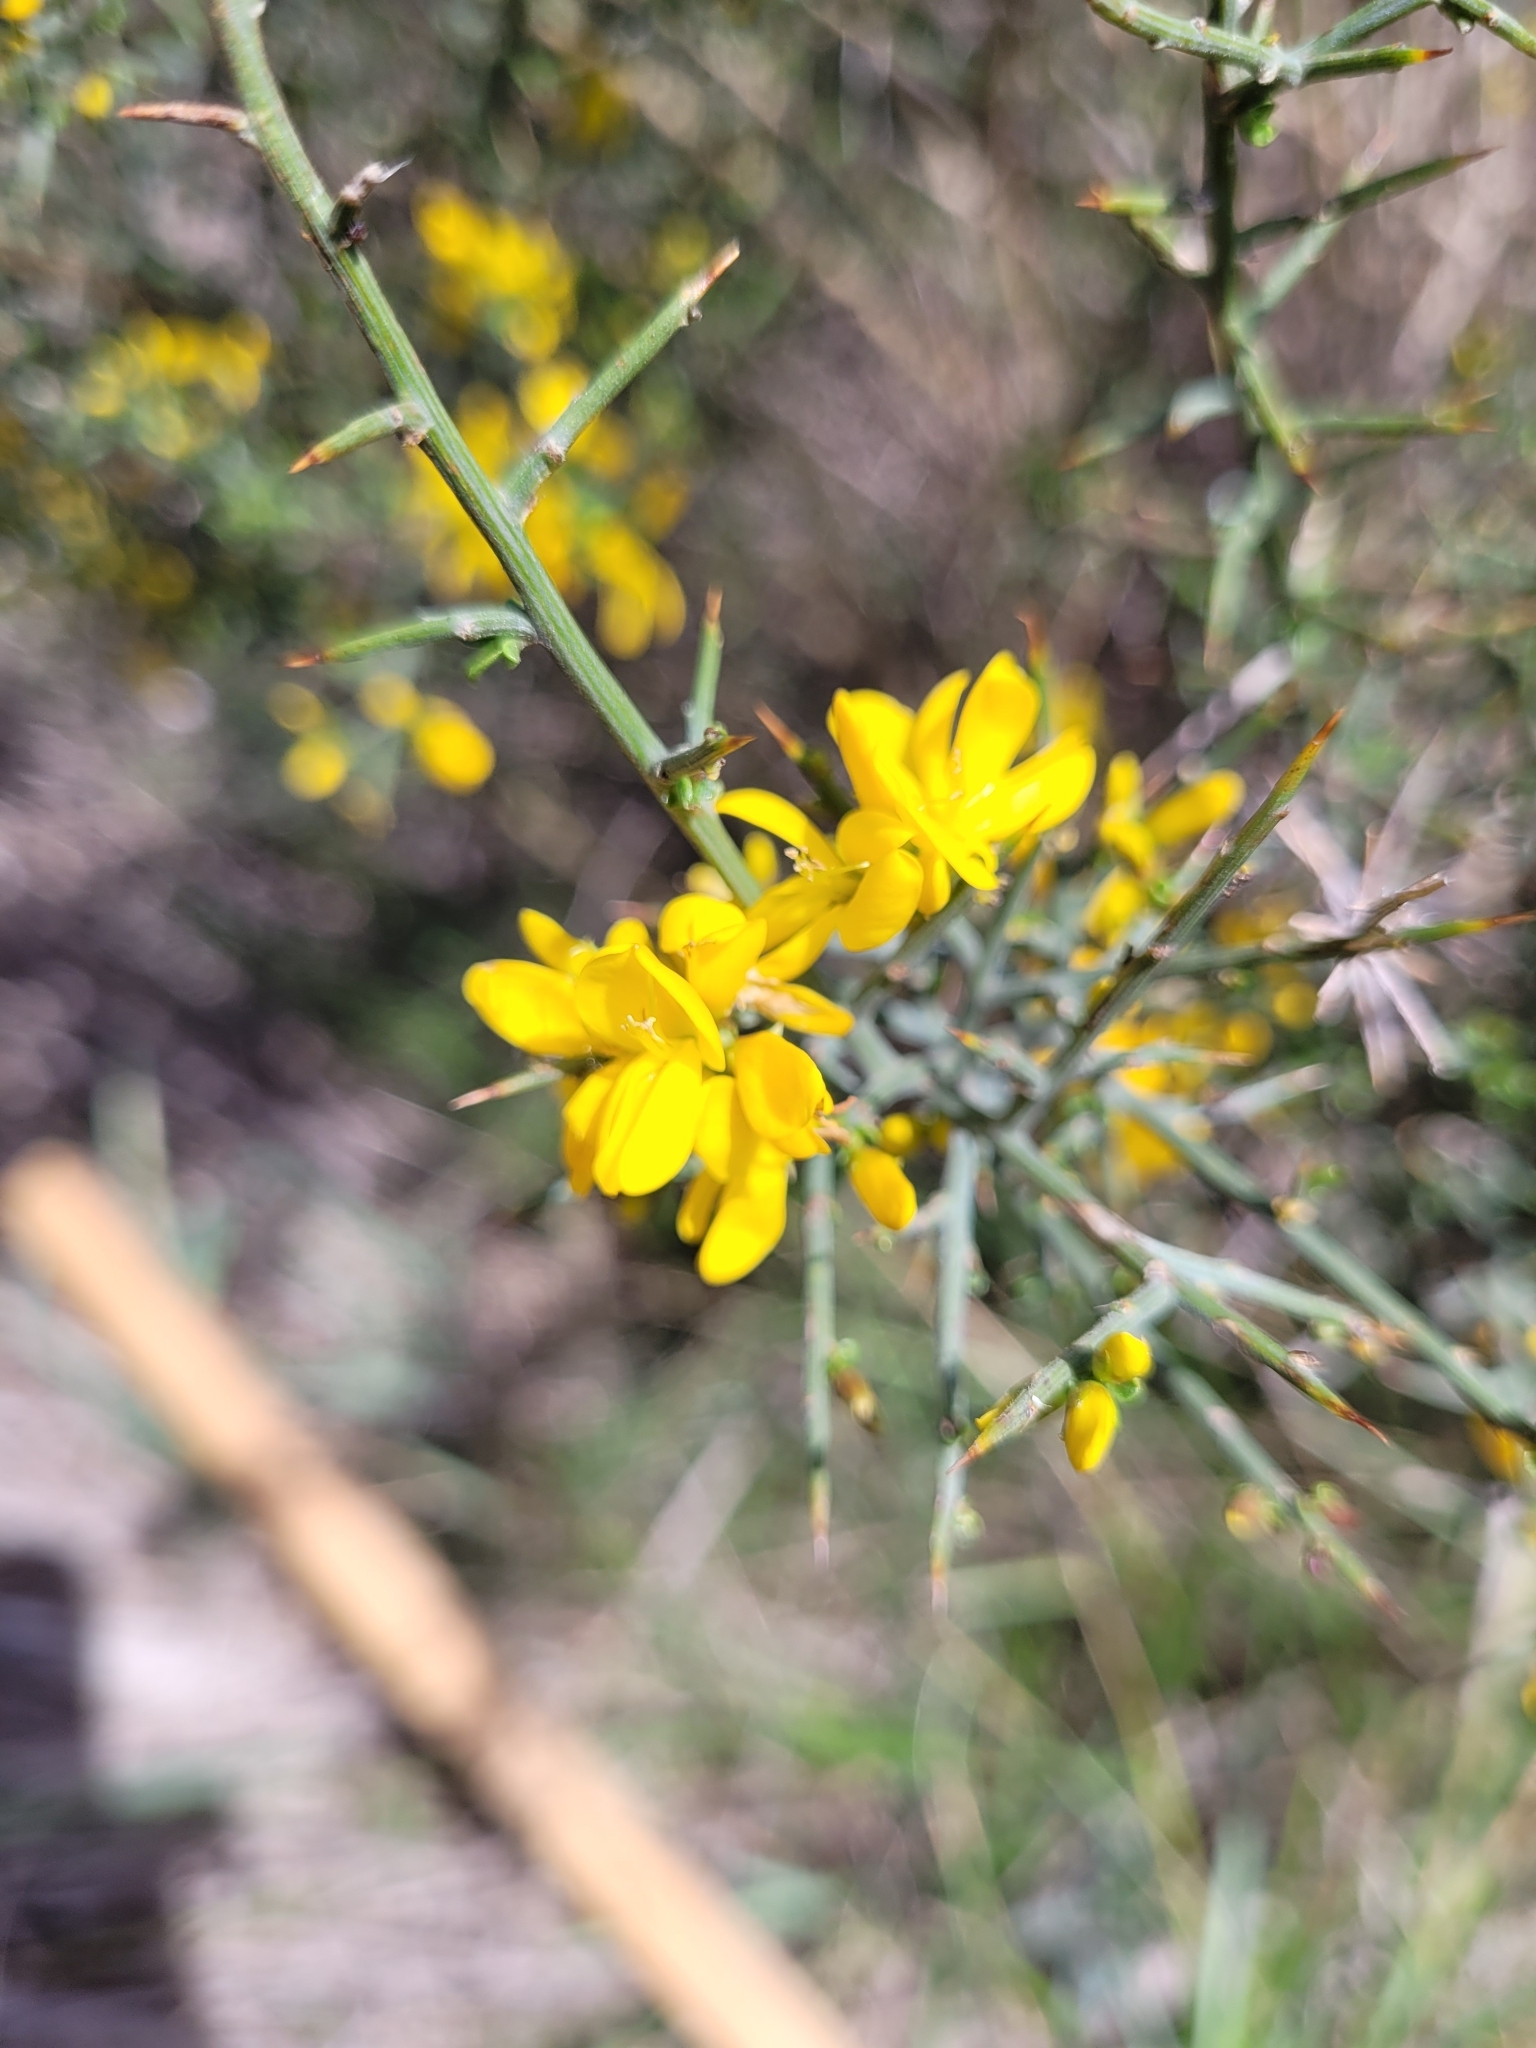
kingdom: Plantae
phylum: Tracheophyta
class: Magnoliopsida
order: Fabales
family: Fabaceae
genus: Genista
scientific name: Genista scorpius
